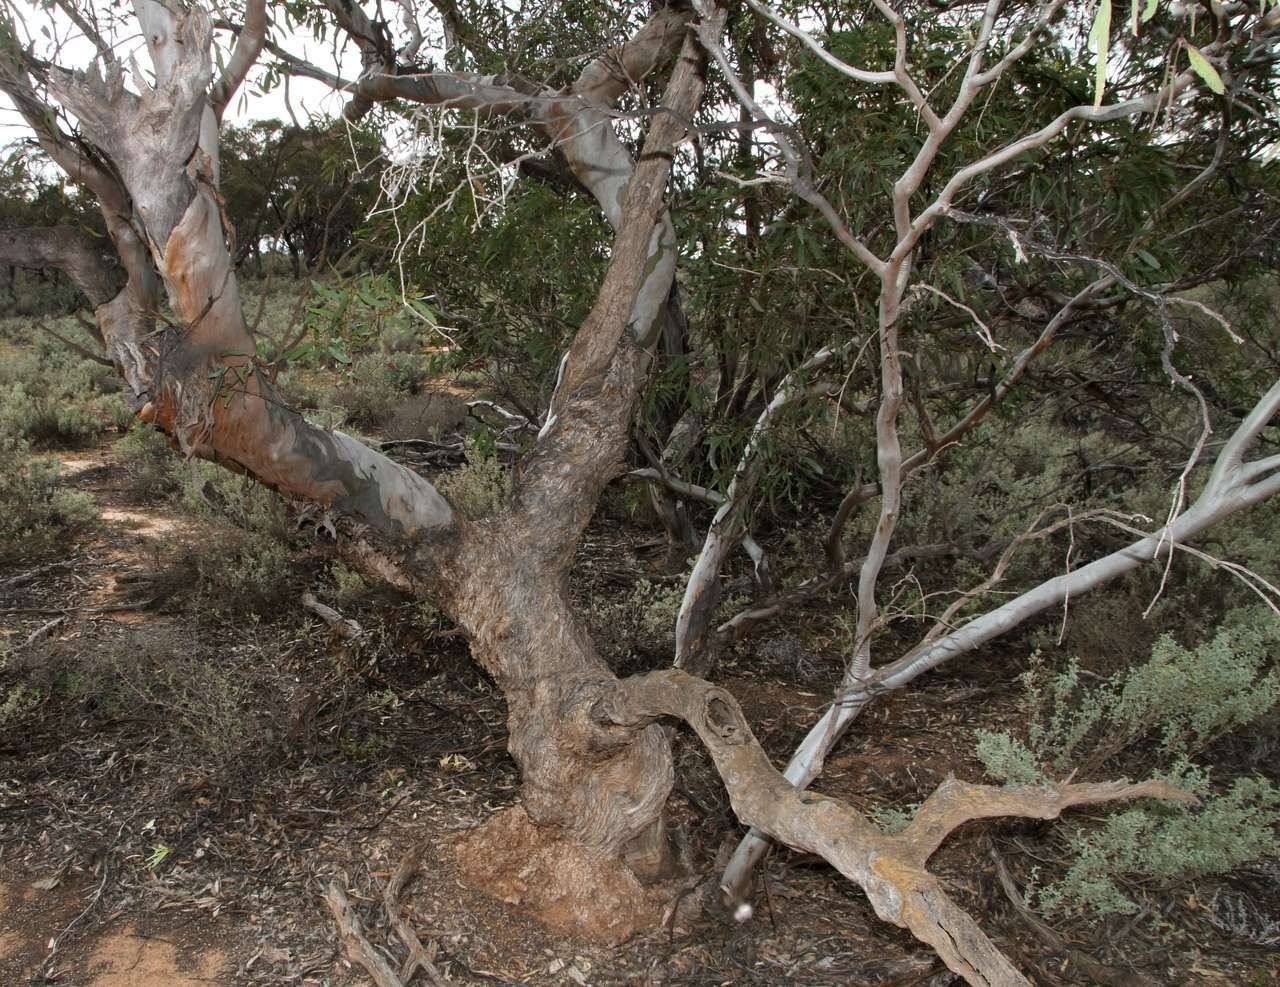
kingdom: Plantae
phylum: Tracheophyta
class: Magnoliopsida
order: Myrtales
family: Myrtaceae
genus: Eucalyptus
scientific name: Eucalyptus calycogona
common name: Marvel mallee
